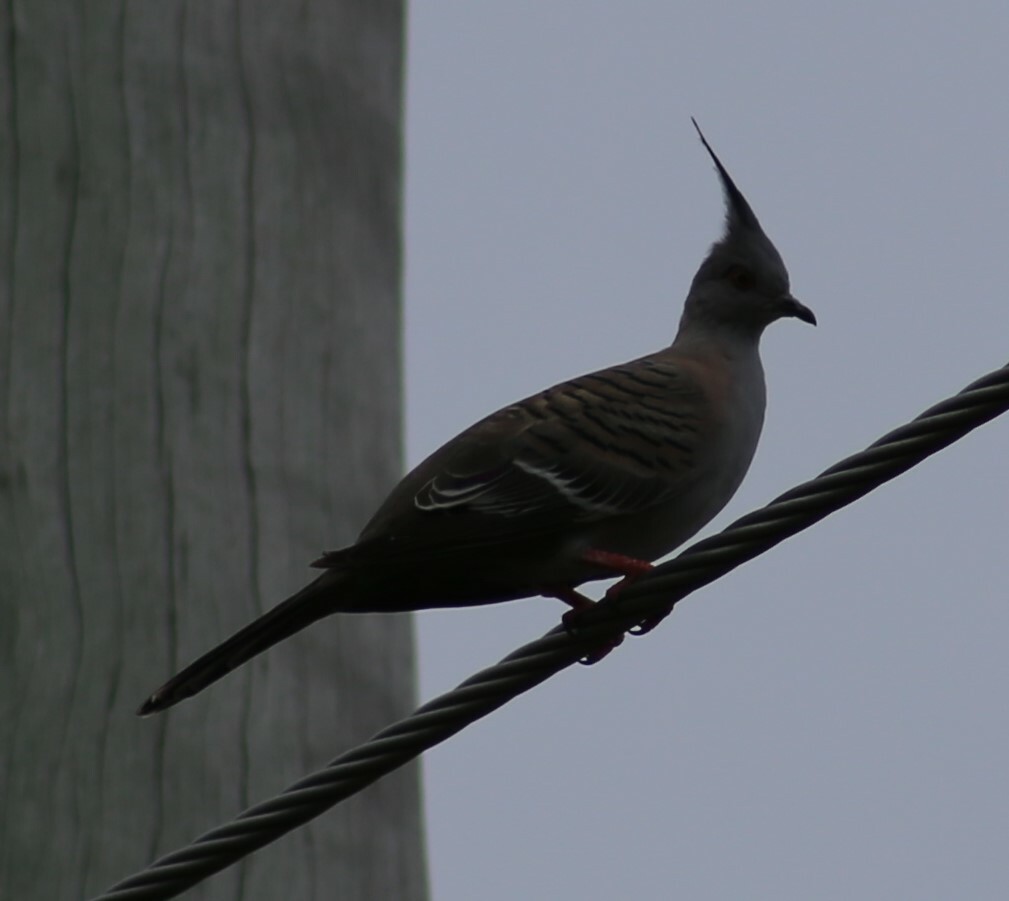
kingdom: Animalia
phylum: Chordata
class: Aves
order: Columbiformes
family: Columbidae
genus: Ocyphaps
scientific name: Ocyphaps lophotes
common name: Crested pigeon
